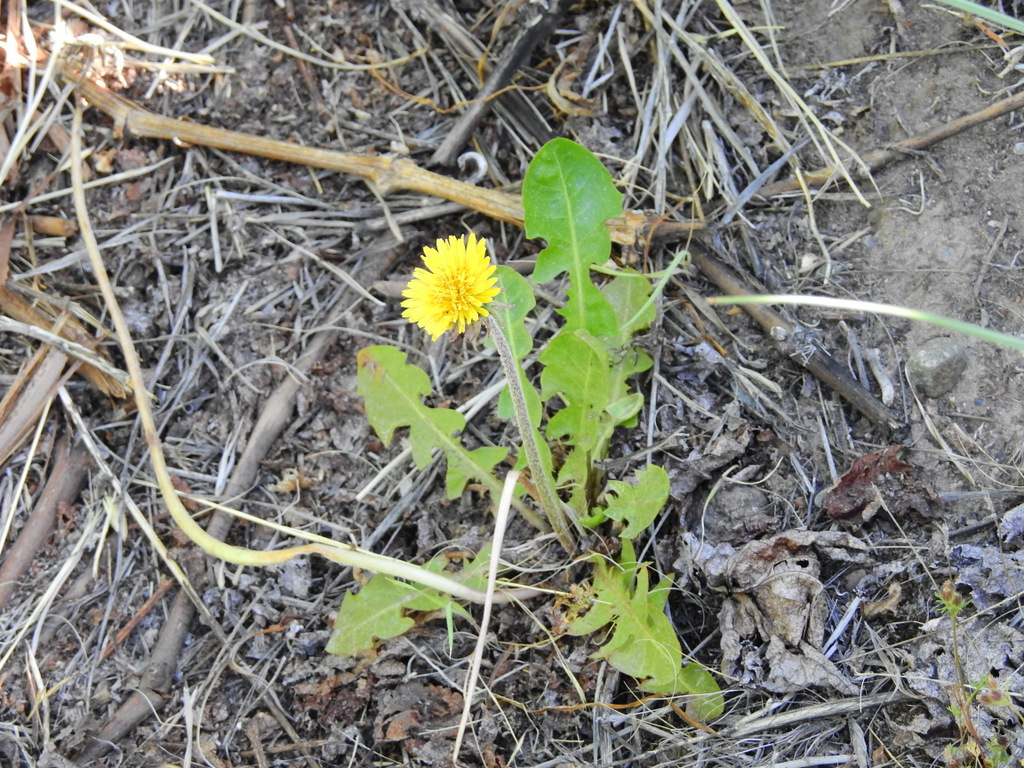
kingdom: Plantae
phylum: Tracheophyta
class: Magnoliopsida
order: Asterales
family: Asteraceae
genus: Taraxacum
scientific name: Taraxacum officinale
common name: Common dandelion
